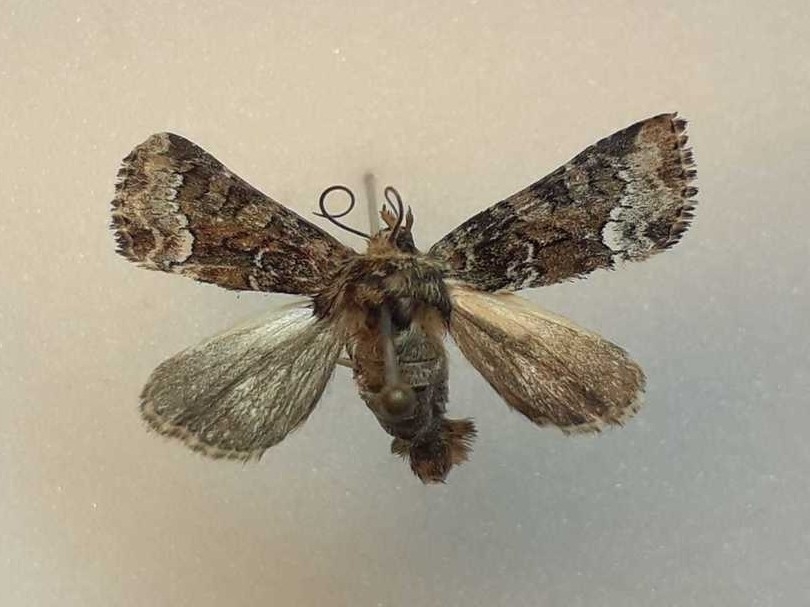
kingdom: Animalia
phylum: Arthropoda
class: Insecta
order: Lepidoptera
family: Noctuidae
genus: Oligia
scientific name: Oligia
